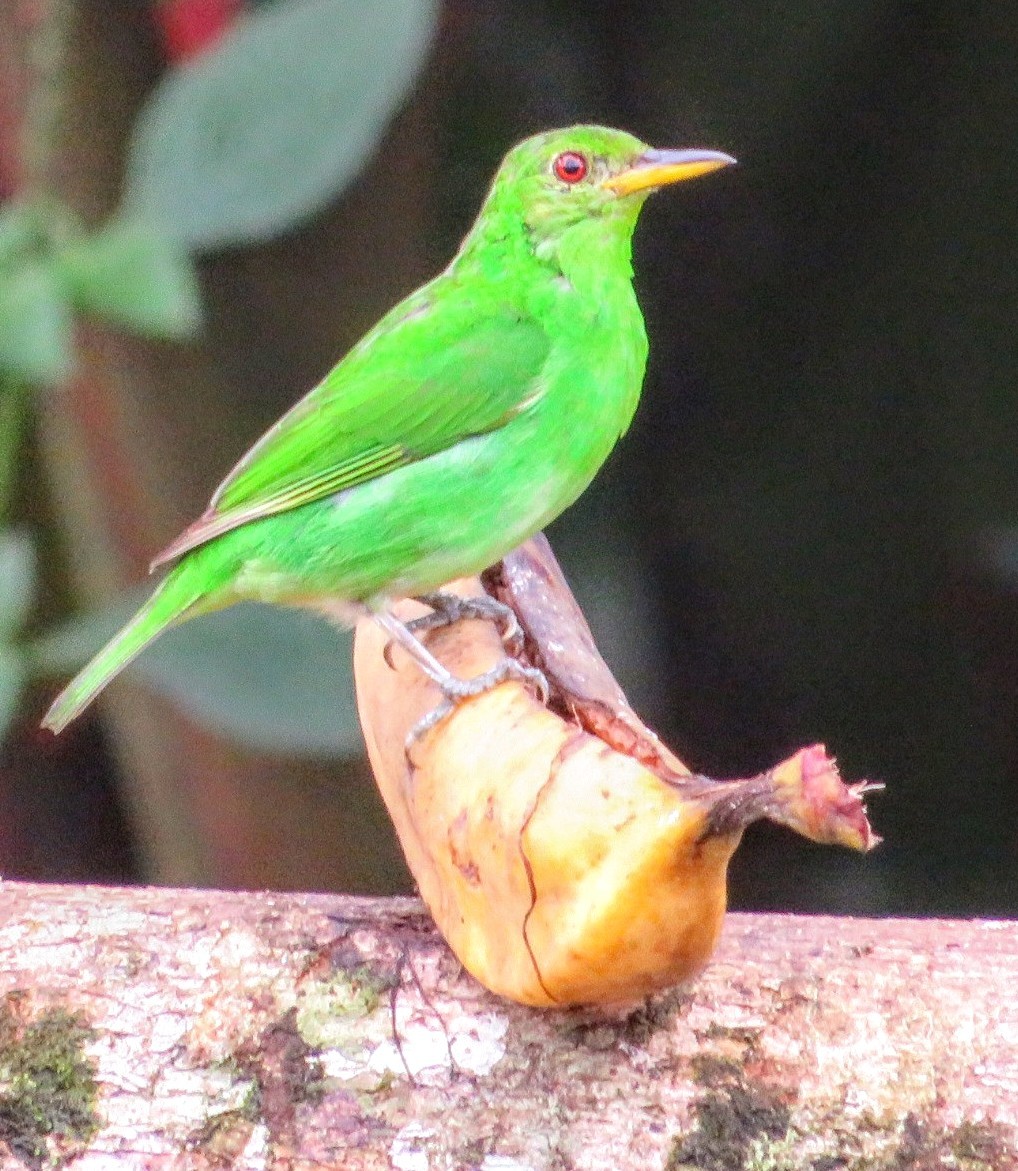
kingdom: Animalia
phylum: Chordata
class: Aves
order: Passeriformes
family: Thraupidae
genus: Chlorophanes
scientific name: Chlorophanes spiza
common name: Green honeycreeper
